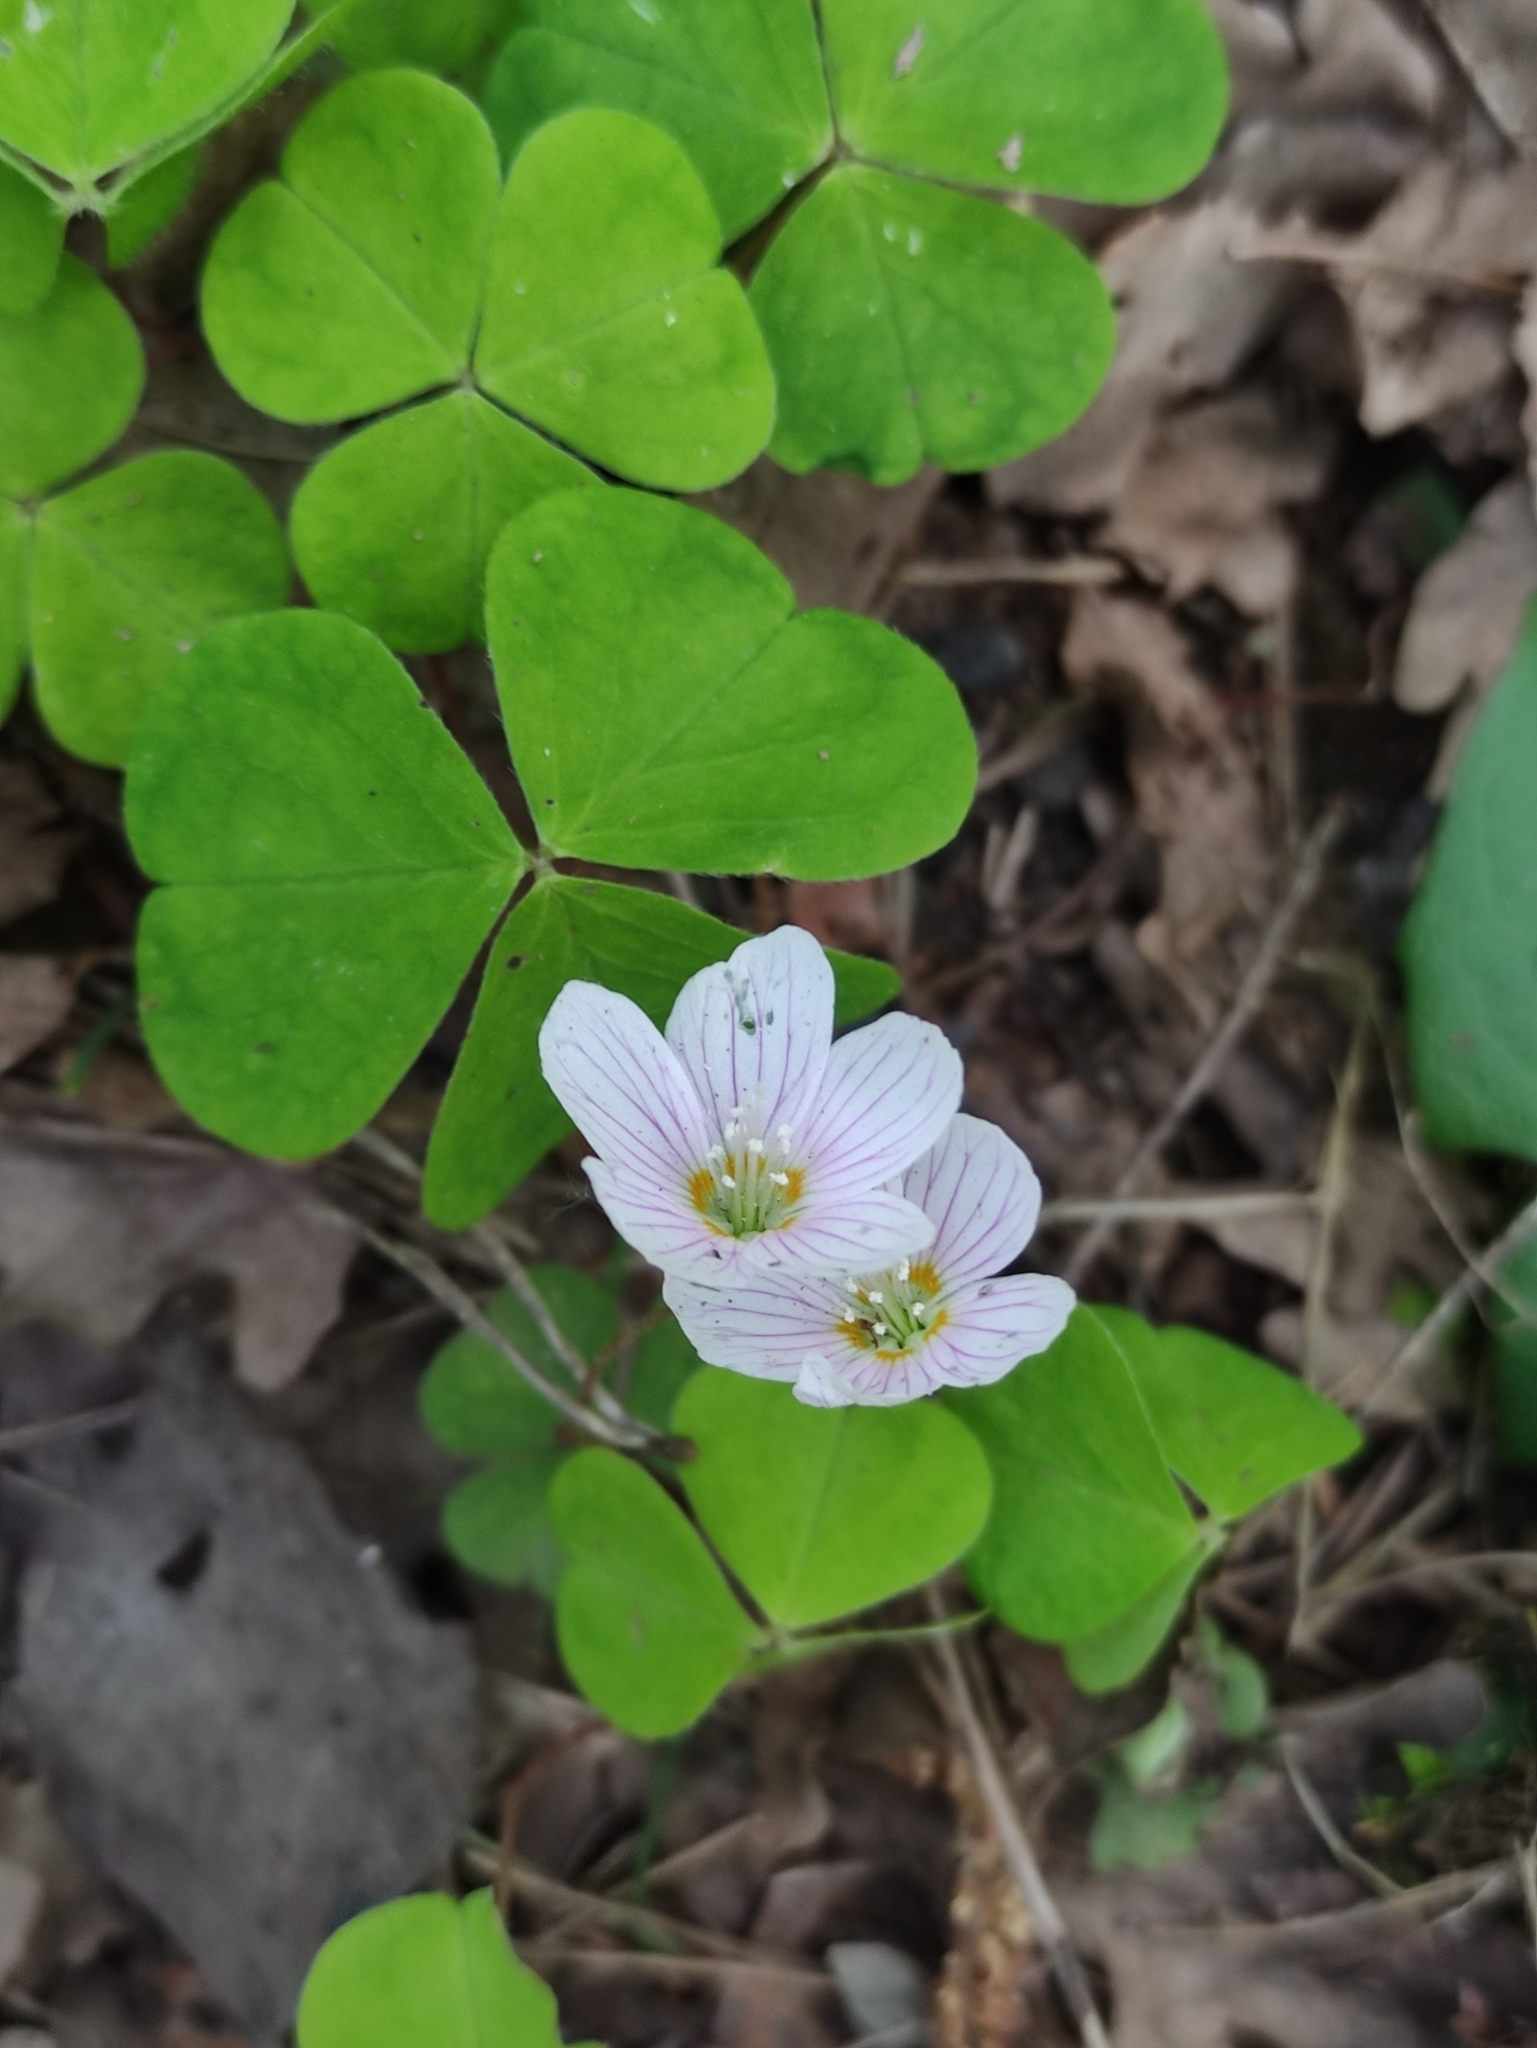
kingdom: Plantae
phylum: Tracheophyta
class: Magnoliopsida
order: Oxalidales
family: Oxalidaceae
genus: Oxalis
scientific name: Oxalis acetosella
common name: Wood-sorrel
